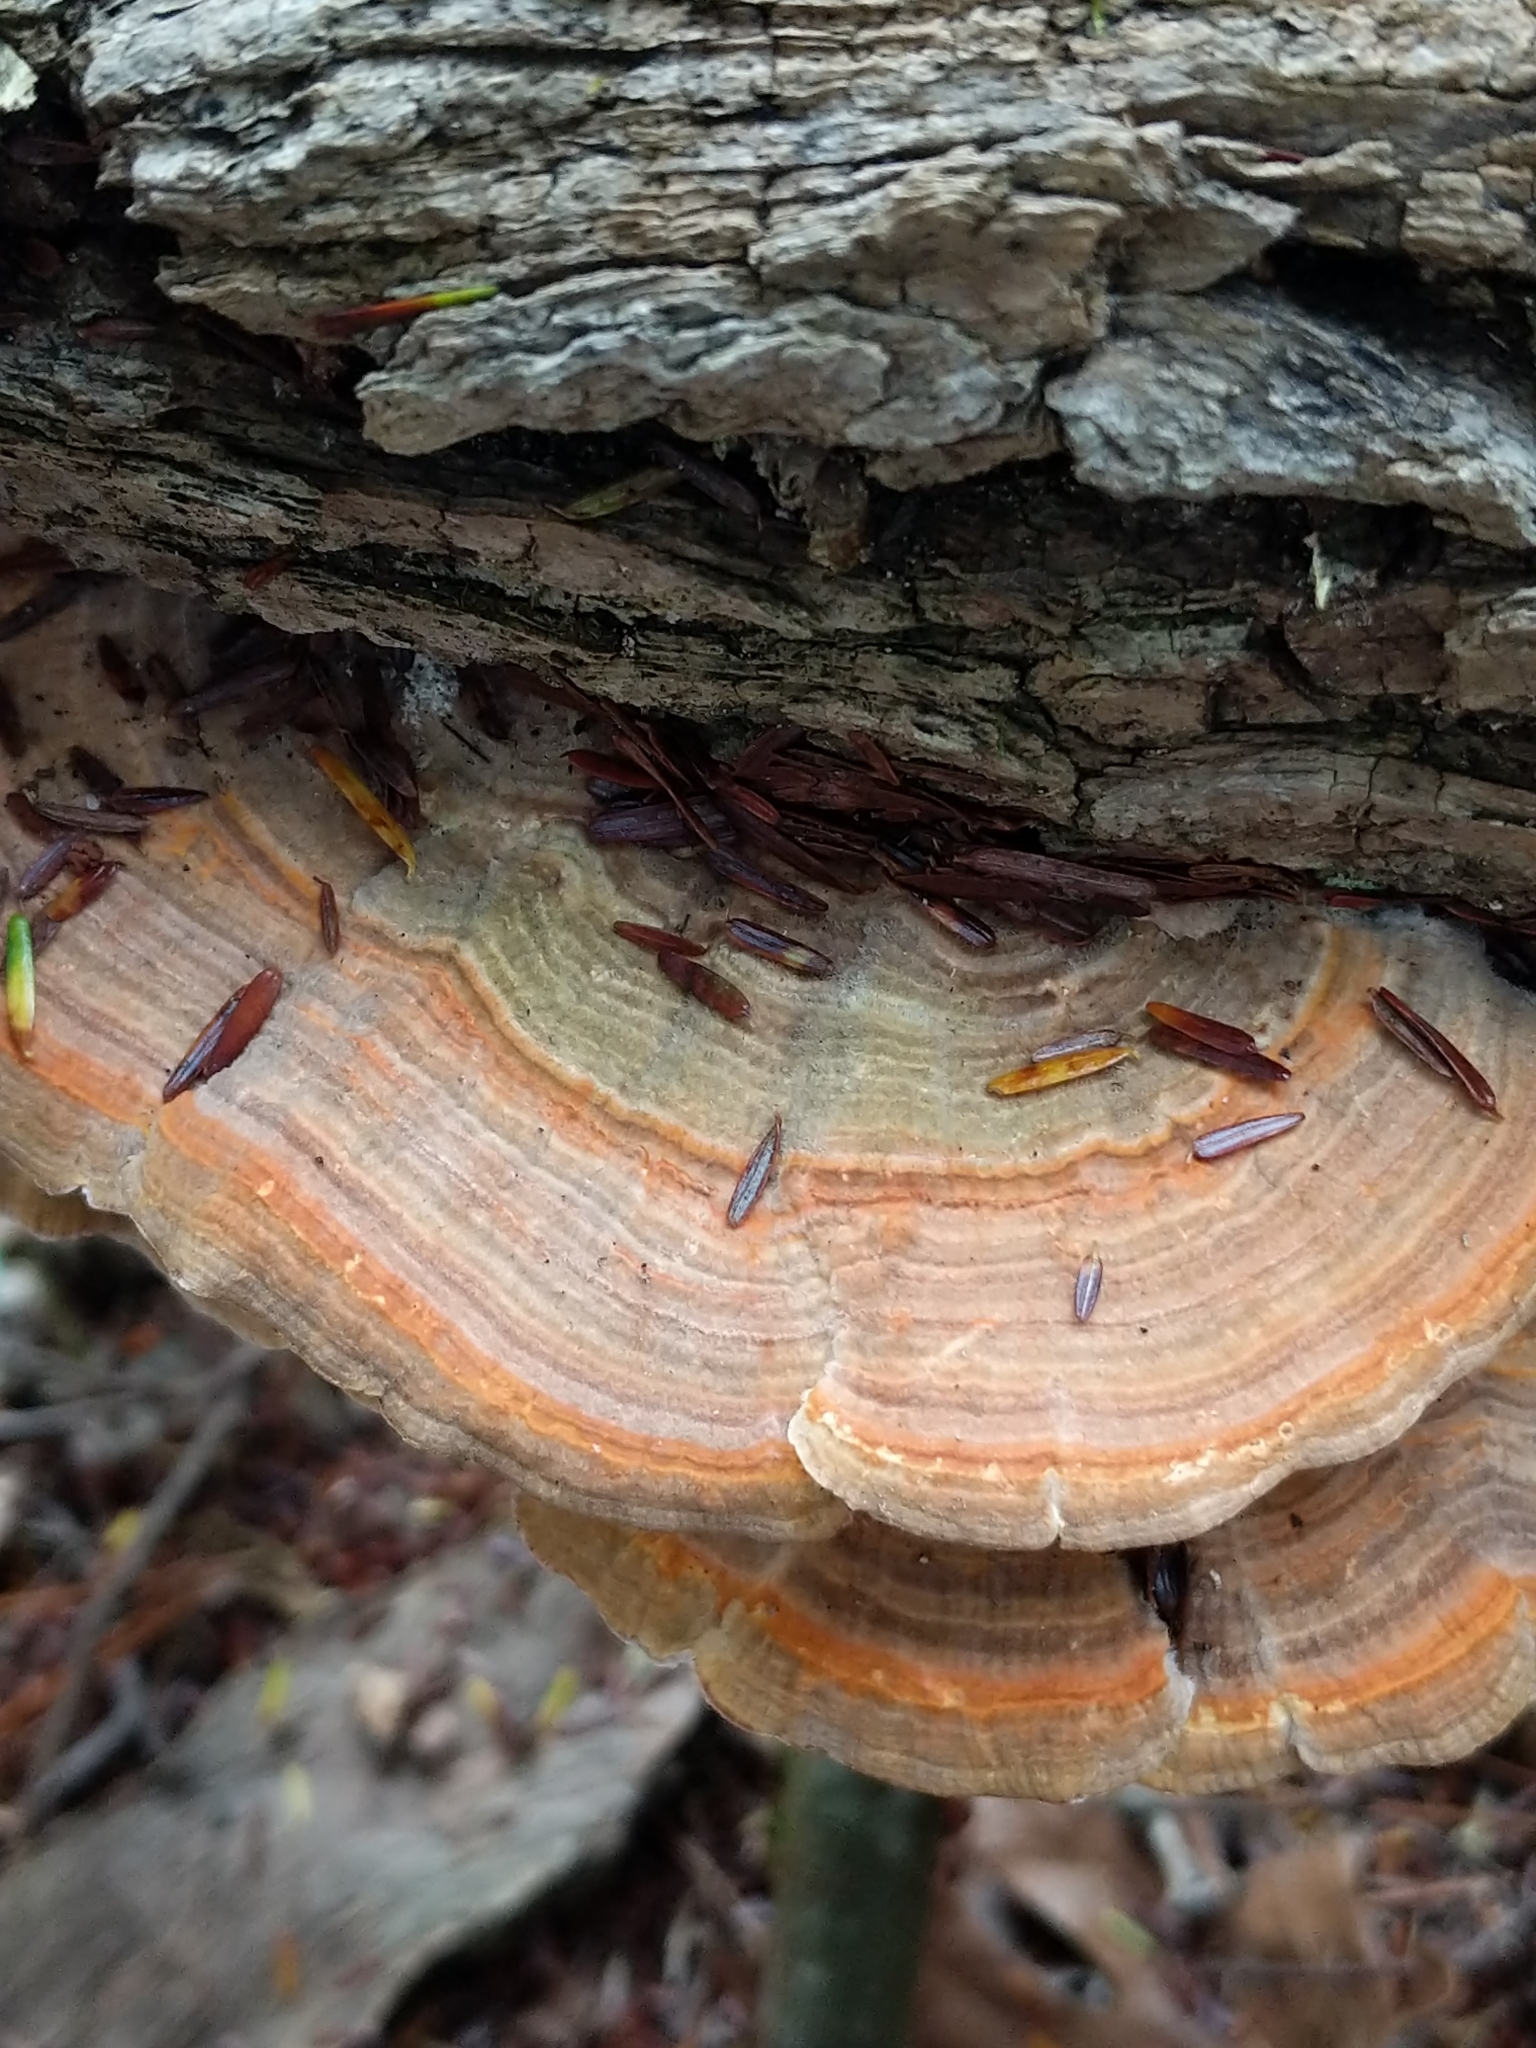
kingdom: Fungi
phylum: Basidiomycota
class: Agaricomycetes
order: Polyporales
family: Polyporaceae
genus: Lenzites
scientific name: Lenzites betulinus
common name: Birch mazegill
